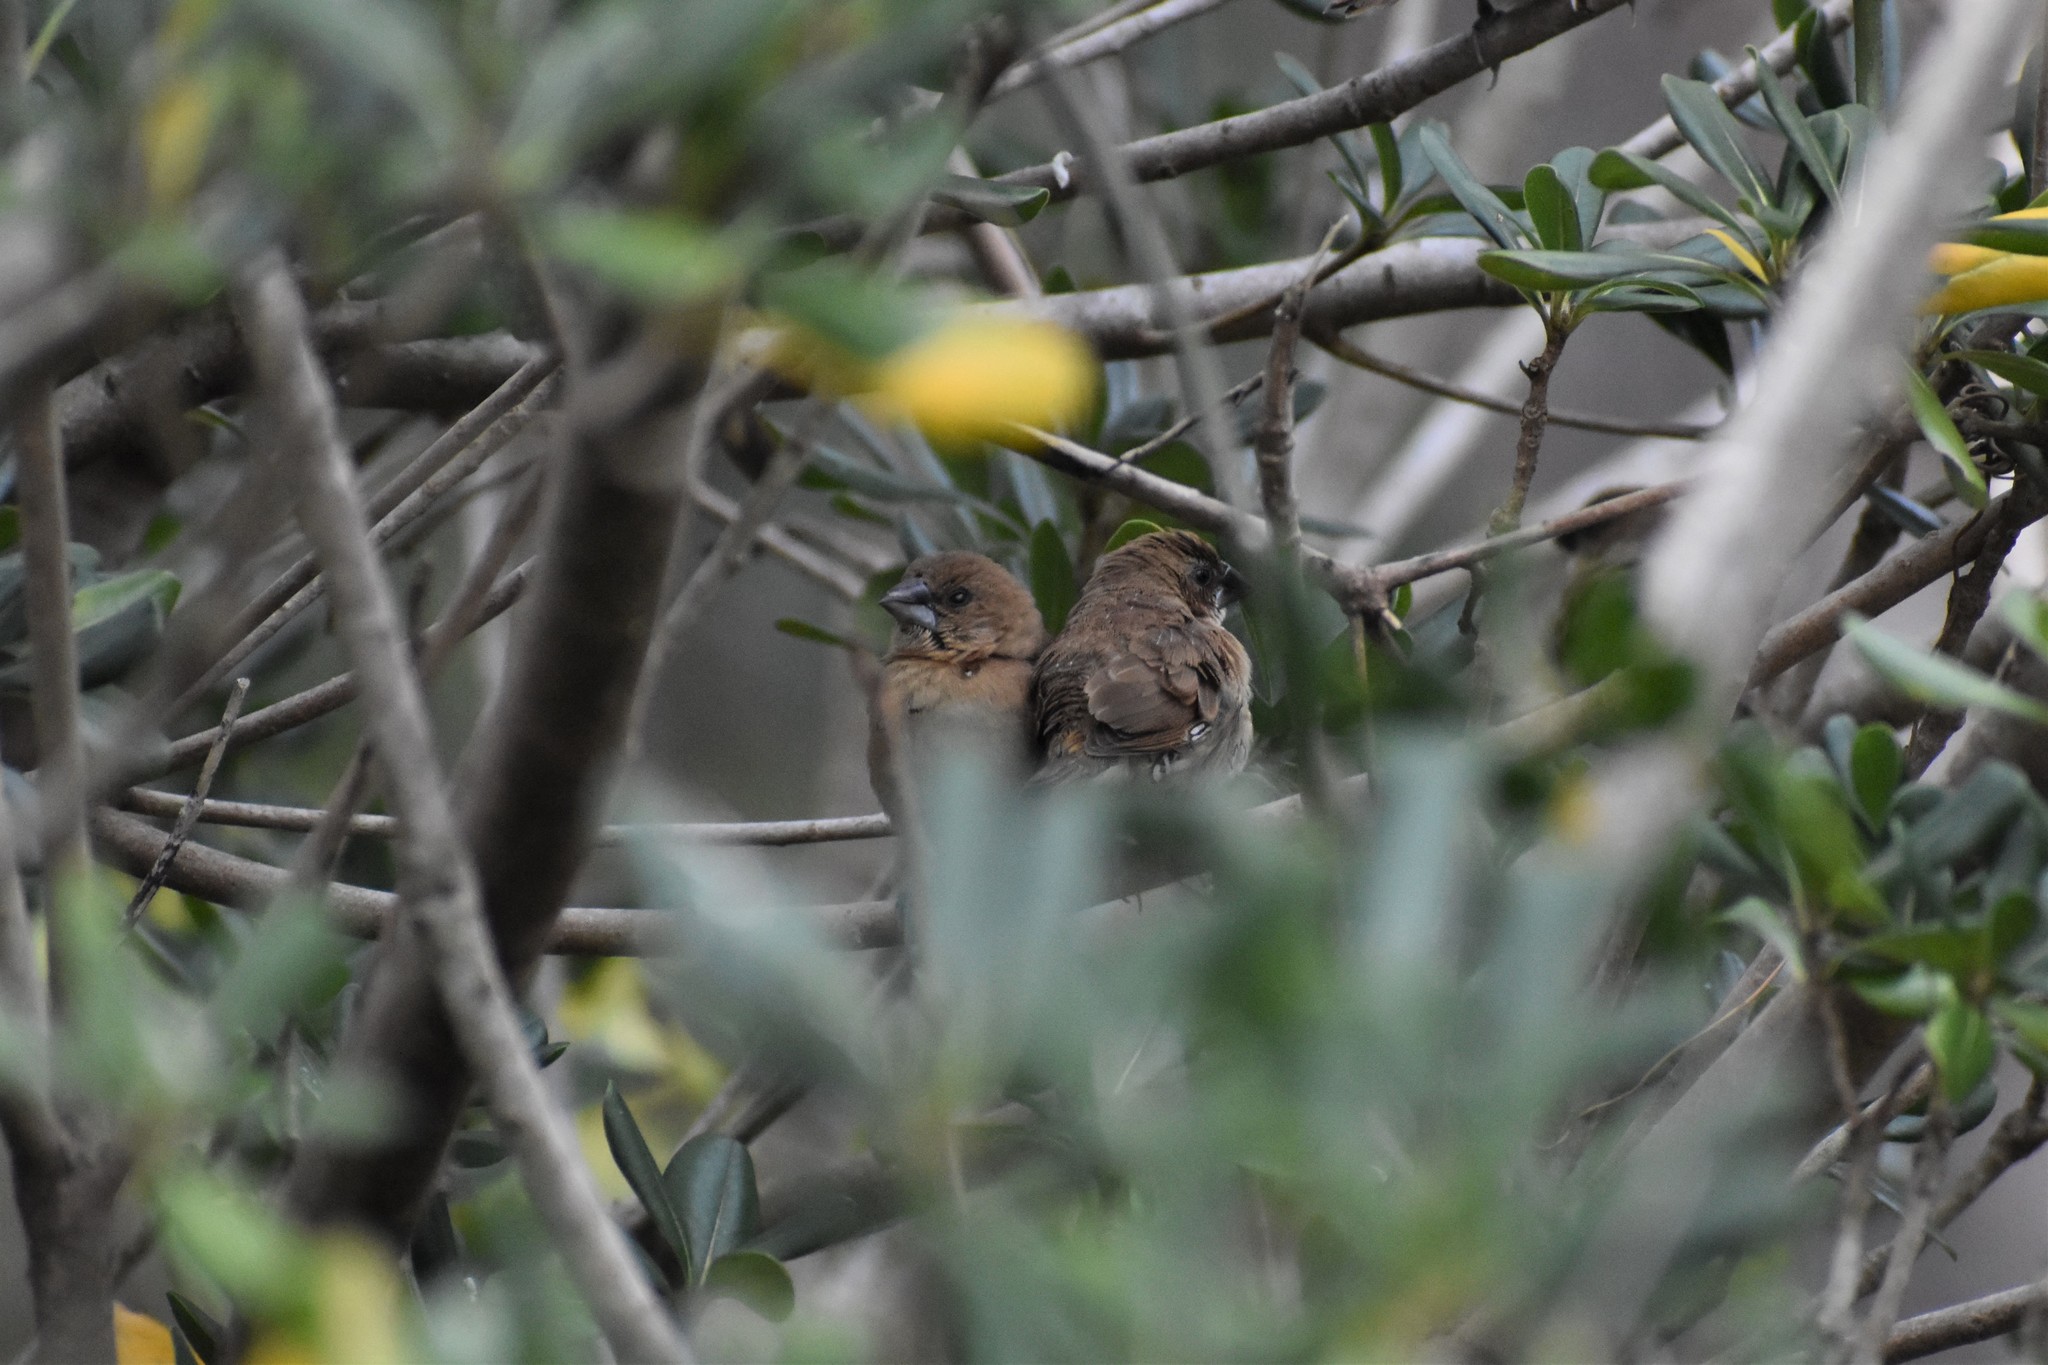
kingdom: Animalia
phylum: Chordata
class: Aves
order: Passeriformes
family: Estrildidae
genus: Lonchura
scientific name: Lonchura punctulata
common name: Scaly-breasted munia
